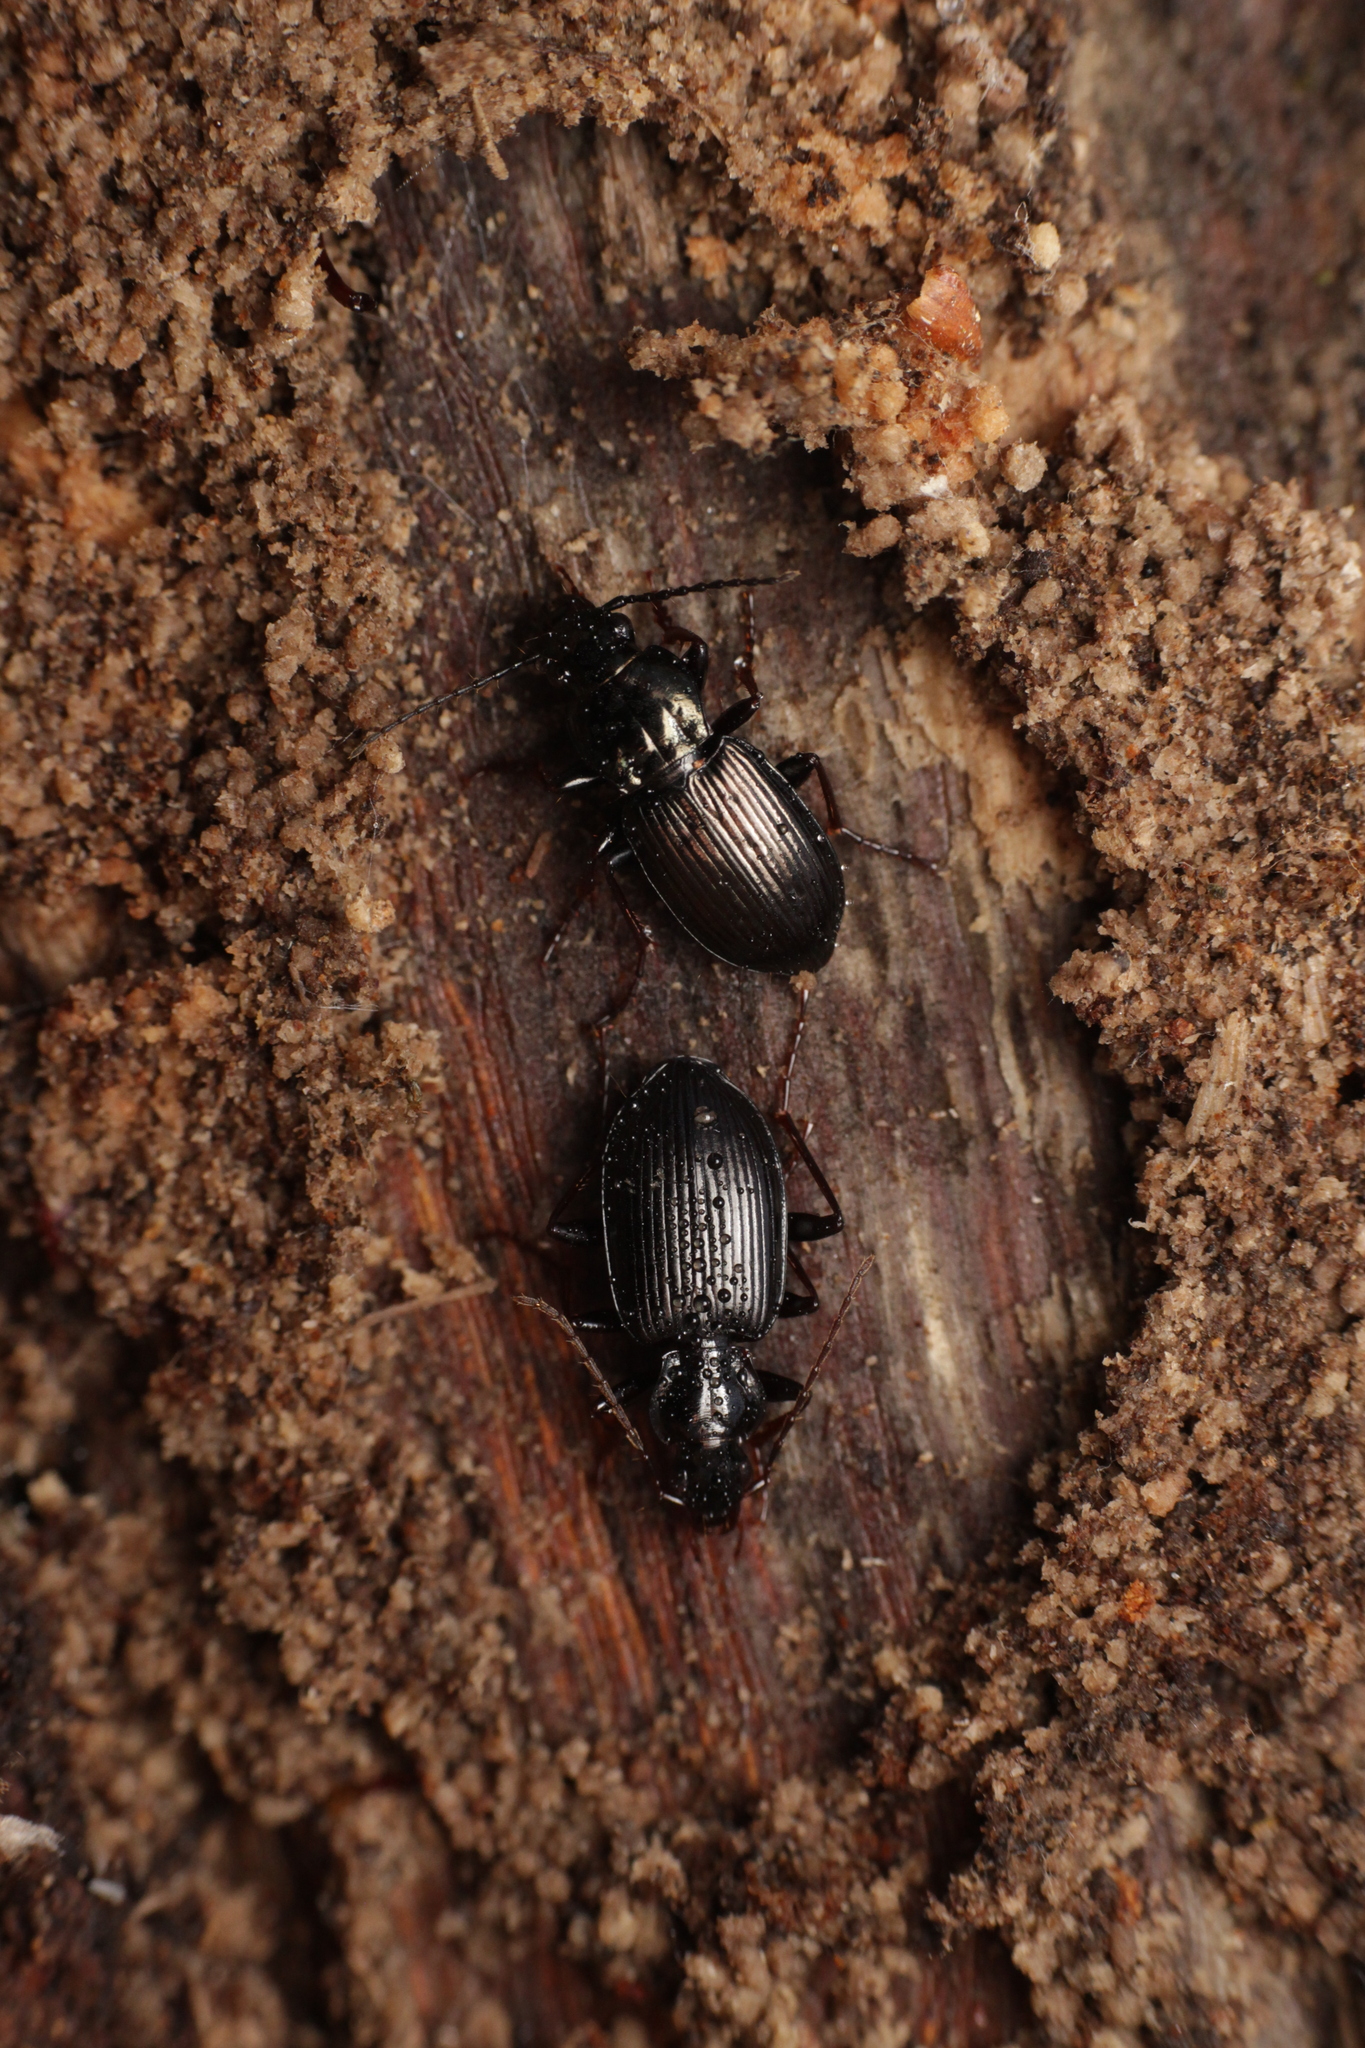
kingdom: Animalia
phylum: Arthropoda
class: Insecta
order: Coleoptera
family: Carabidae
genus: Platynus
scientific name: Platynus assimilis
